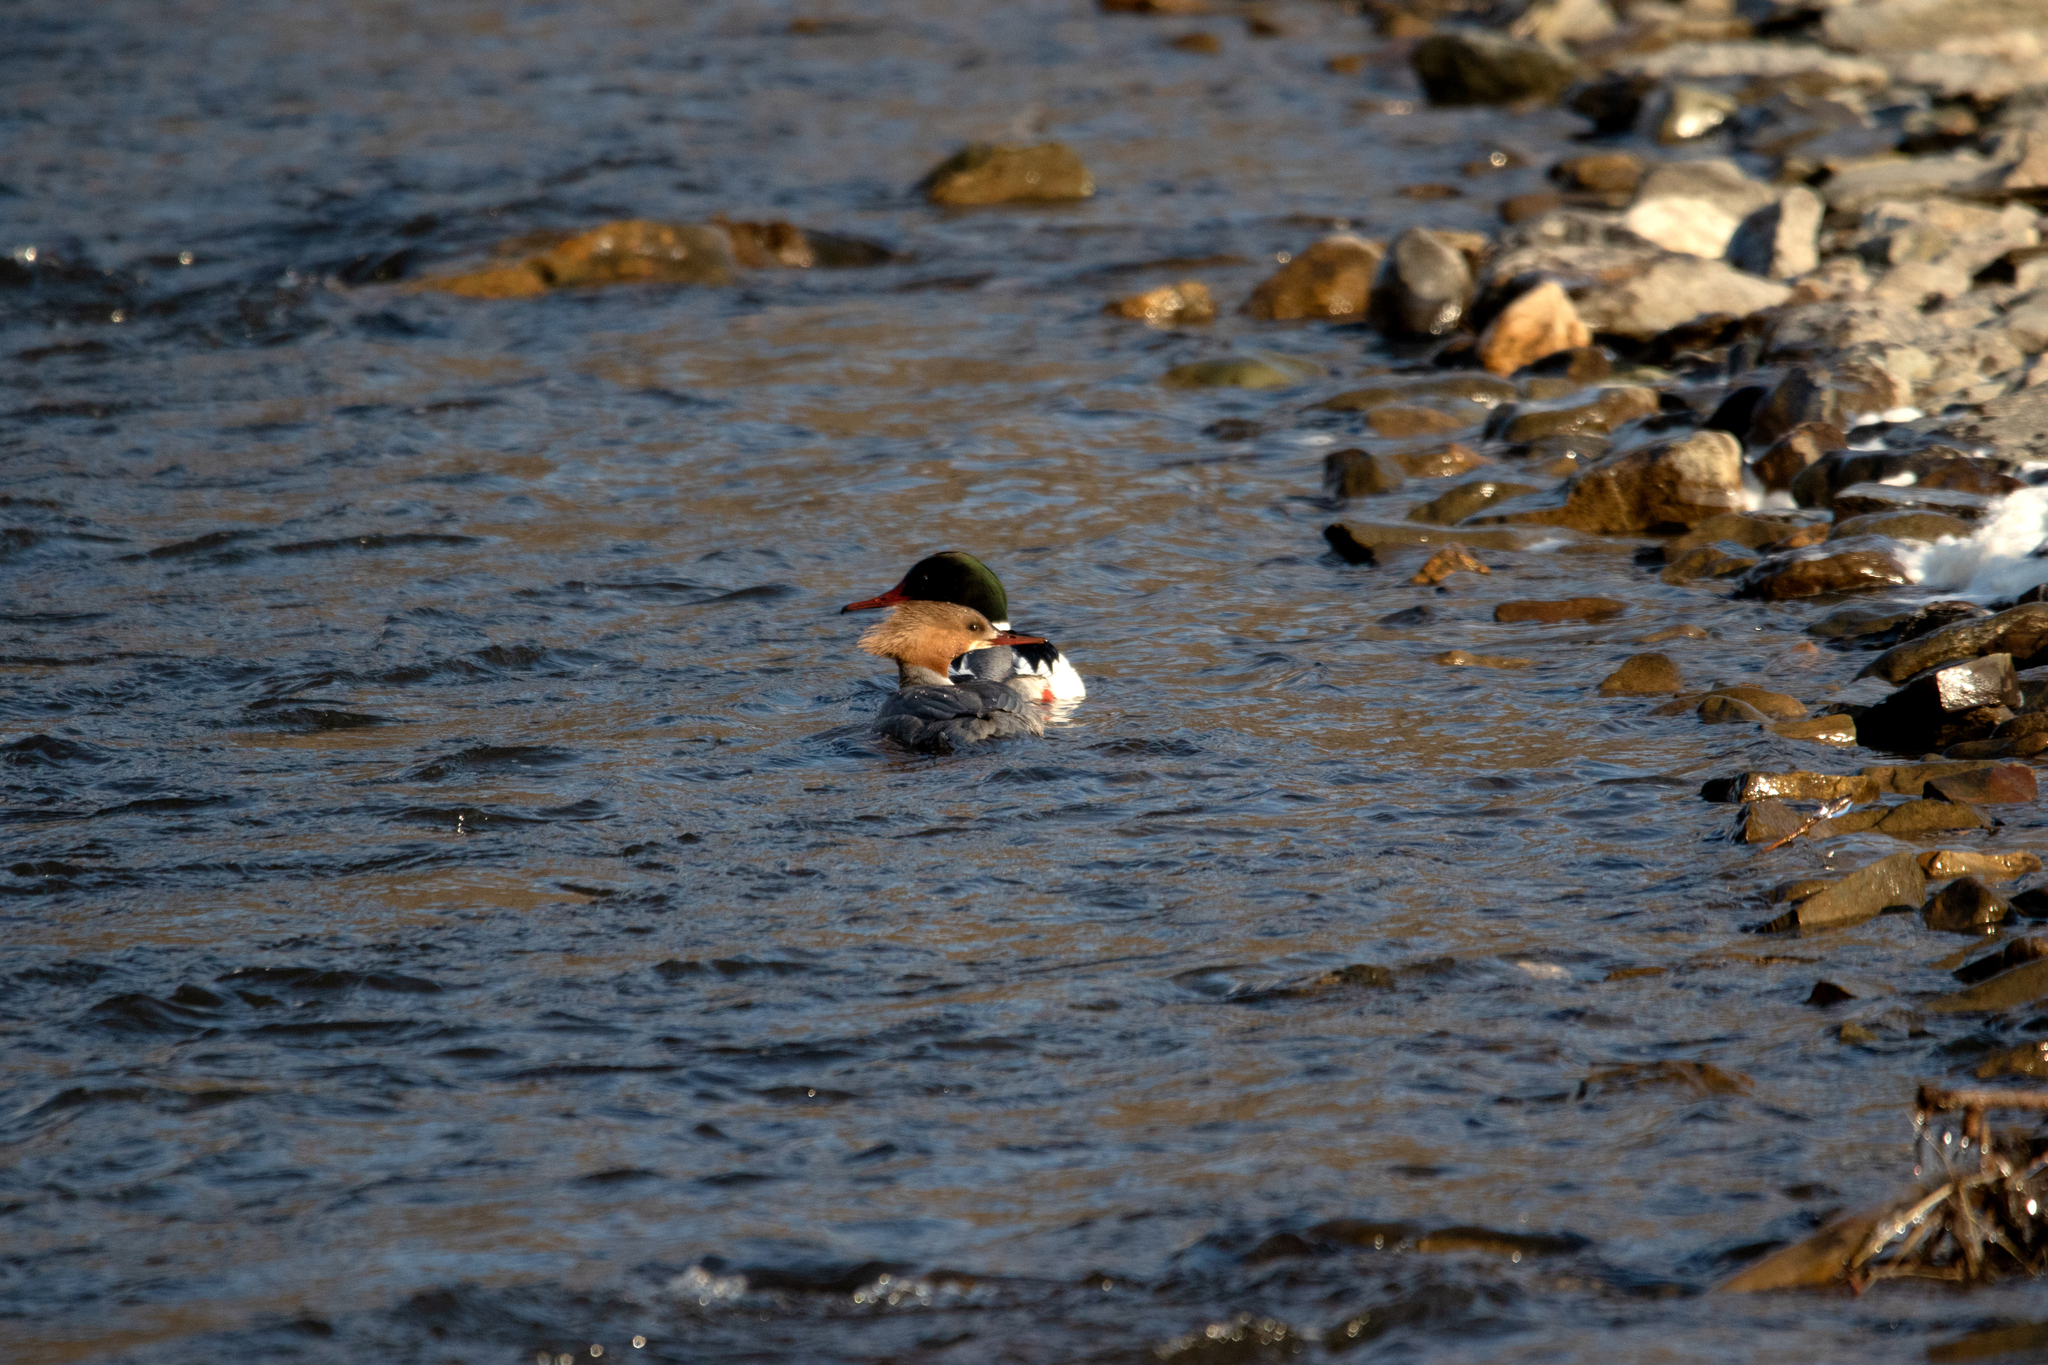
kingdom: Animalia
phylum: Chordata
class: Aves
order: Anseriformes
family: Anatidae
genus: Mergus
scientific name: Mergus merganser
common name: Common merganser
